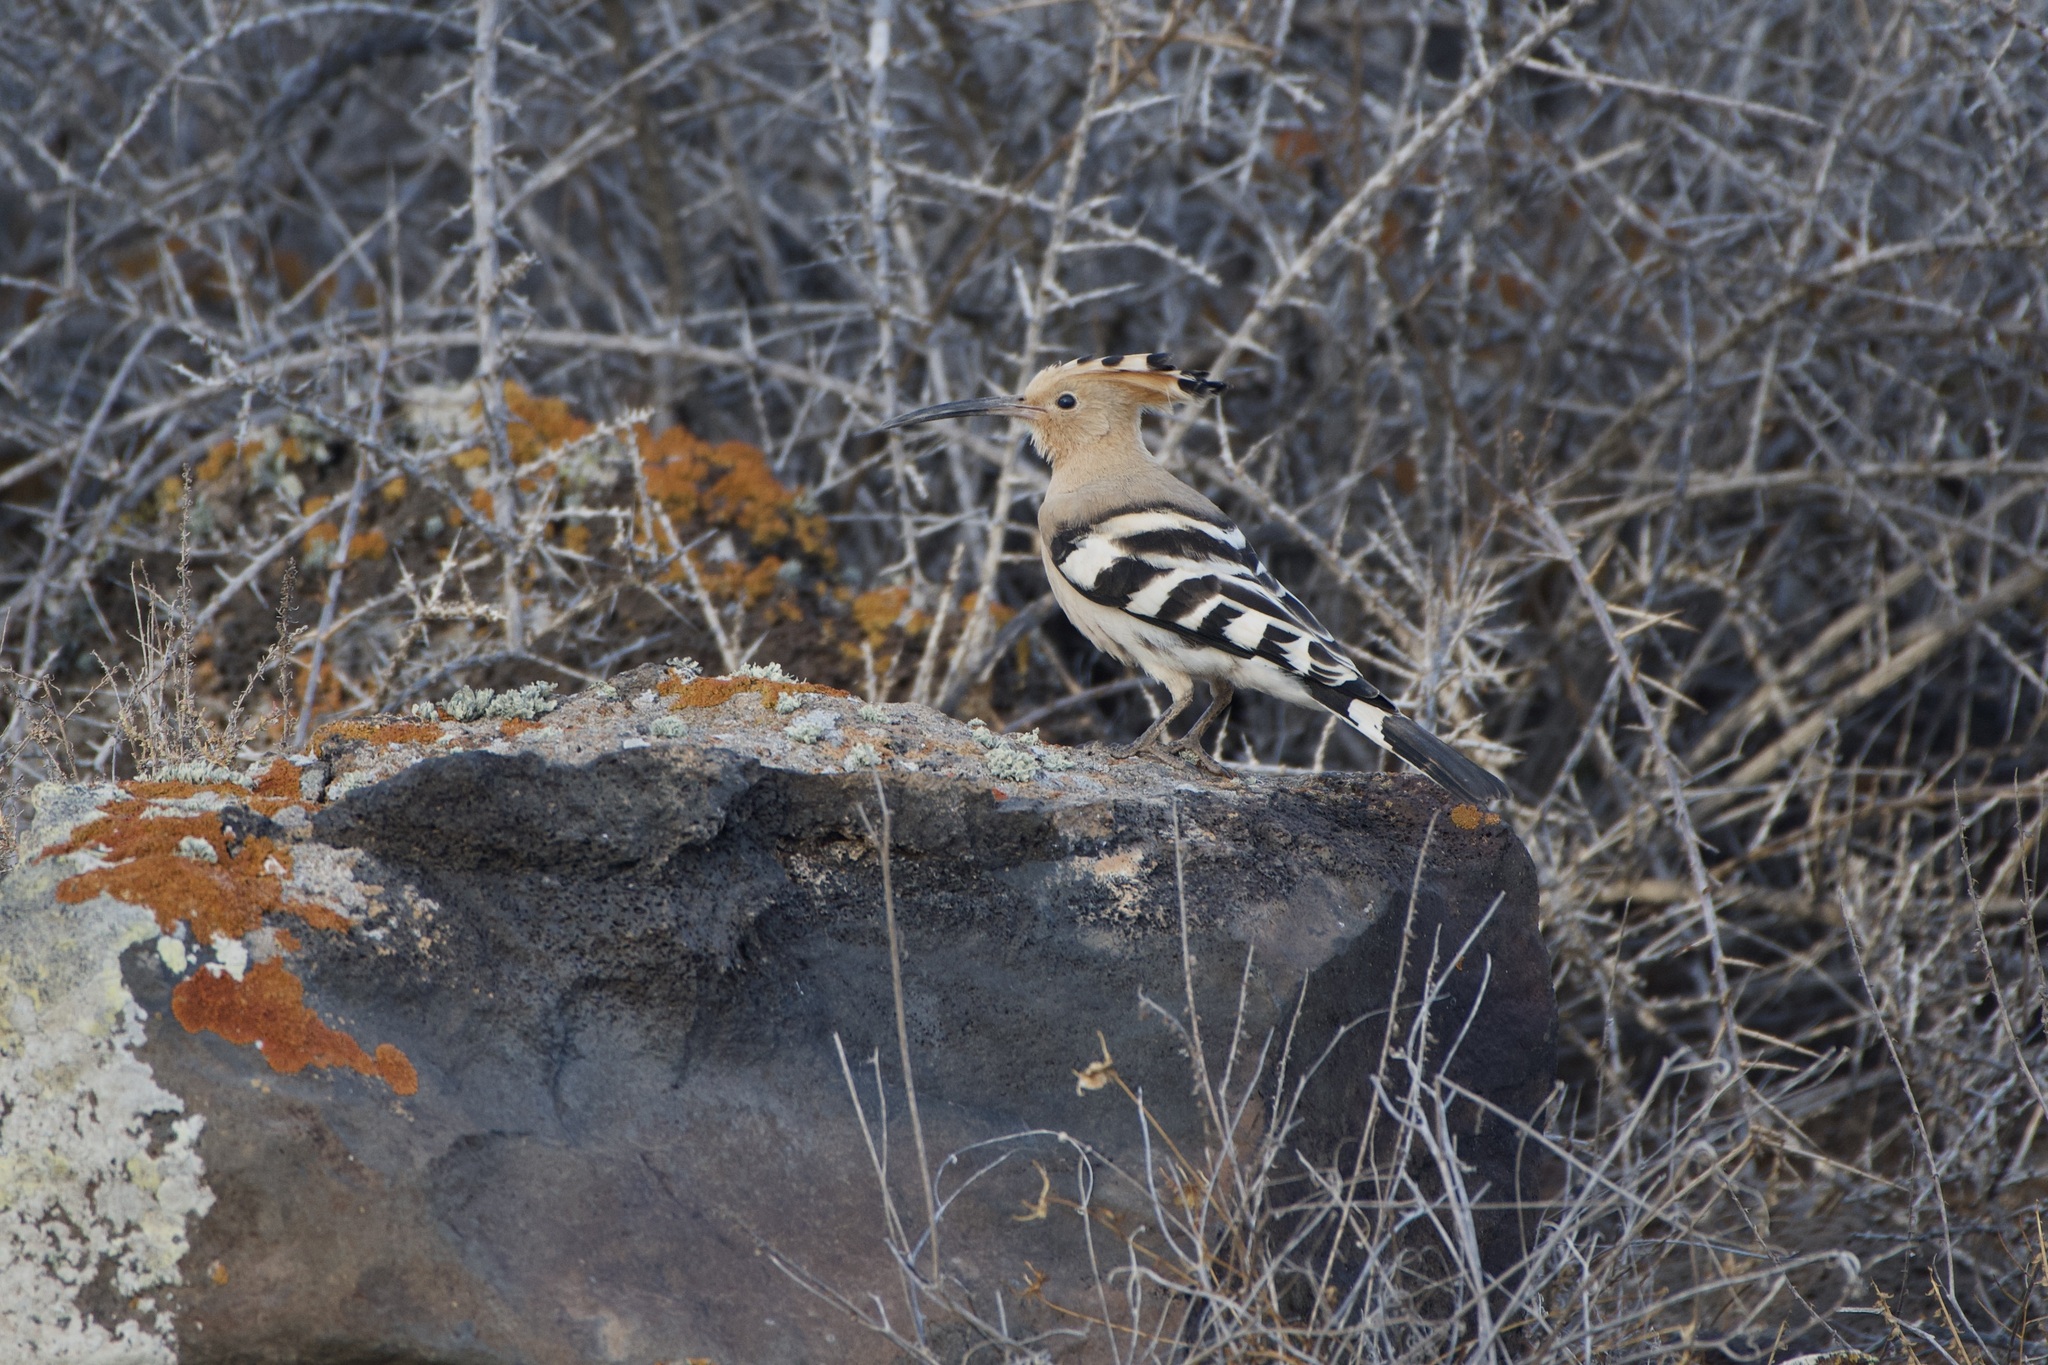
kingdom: Animalia
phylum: Chordata
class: Aves
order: Bucerotiformes
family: Upupidae
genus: Upupa
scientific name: Upupa epops
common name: Eurasian hoopoe
